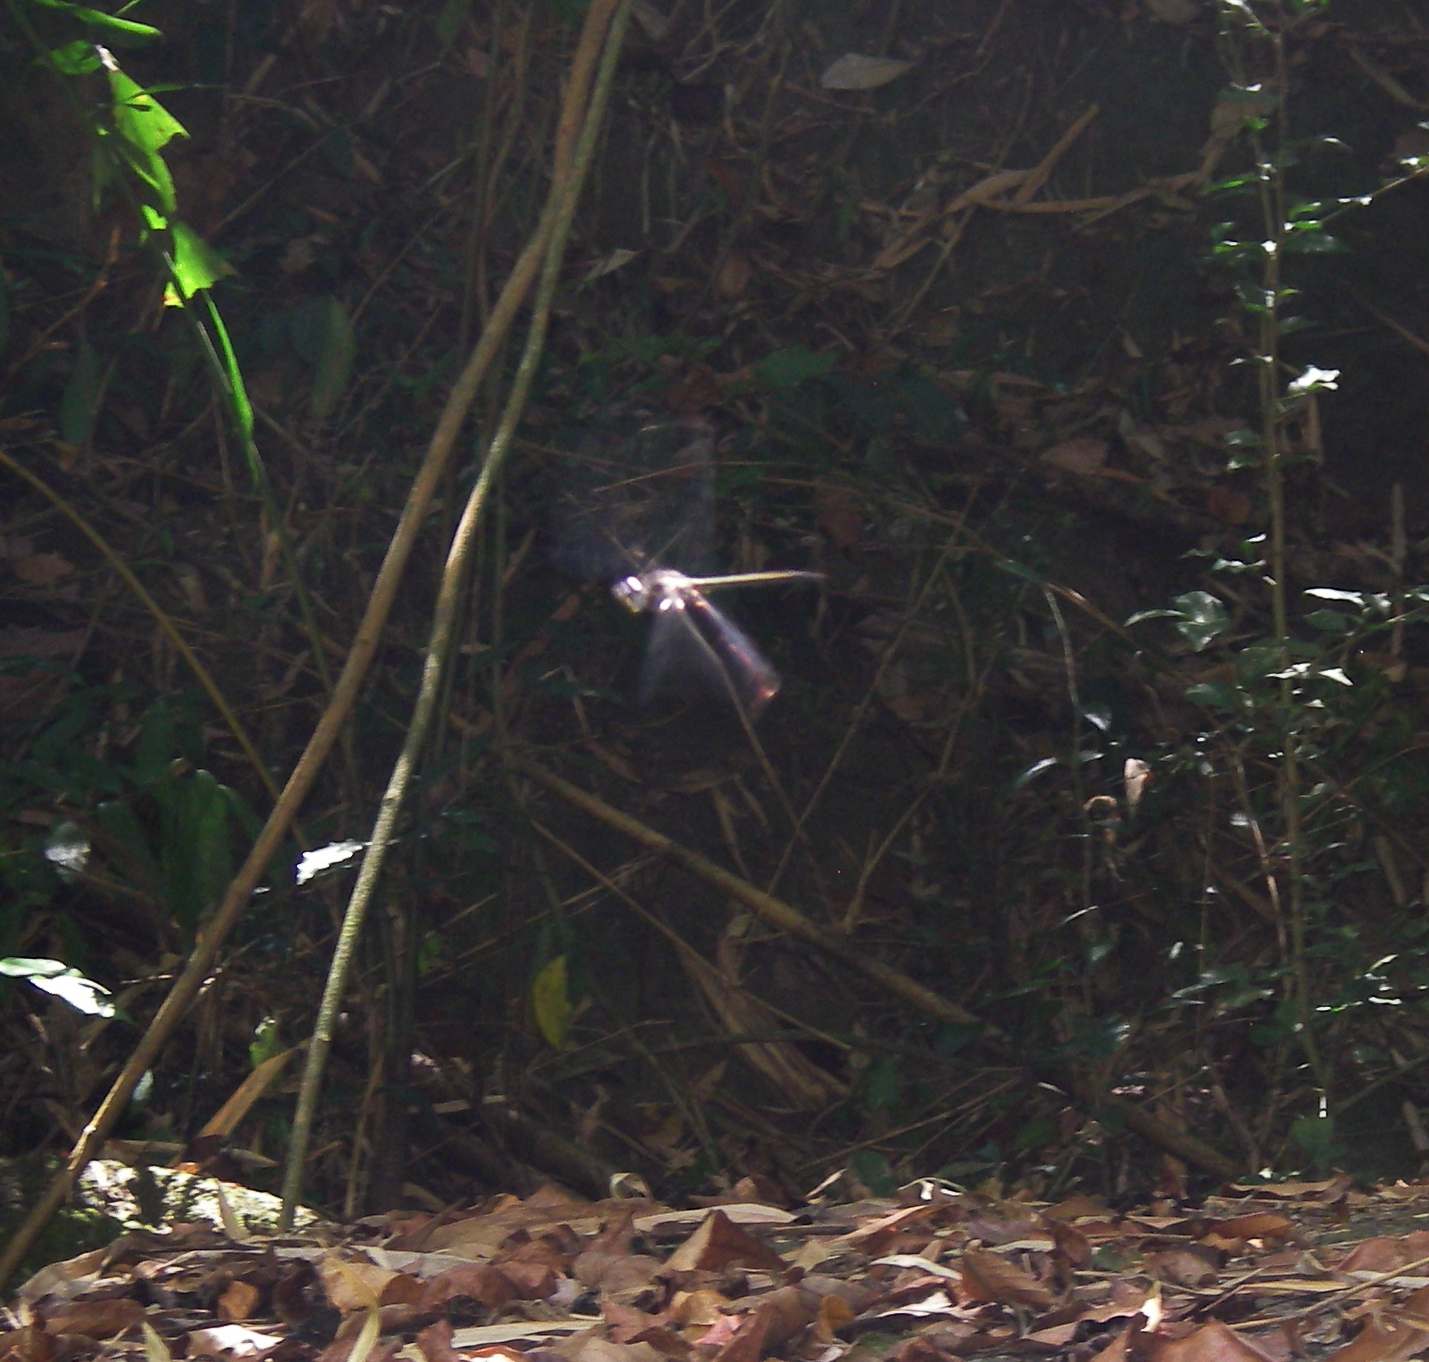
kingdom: Animalia
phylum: Arthropoda
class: Insecta
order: Odonata
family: Libellulidae
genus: Zygonyx
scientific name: Zygonyx iris
